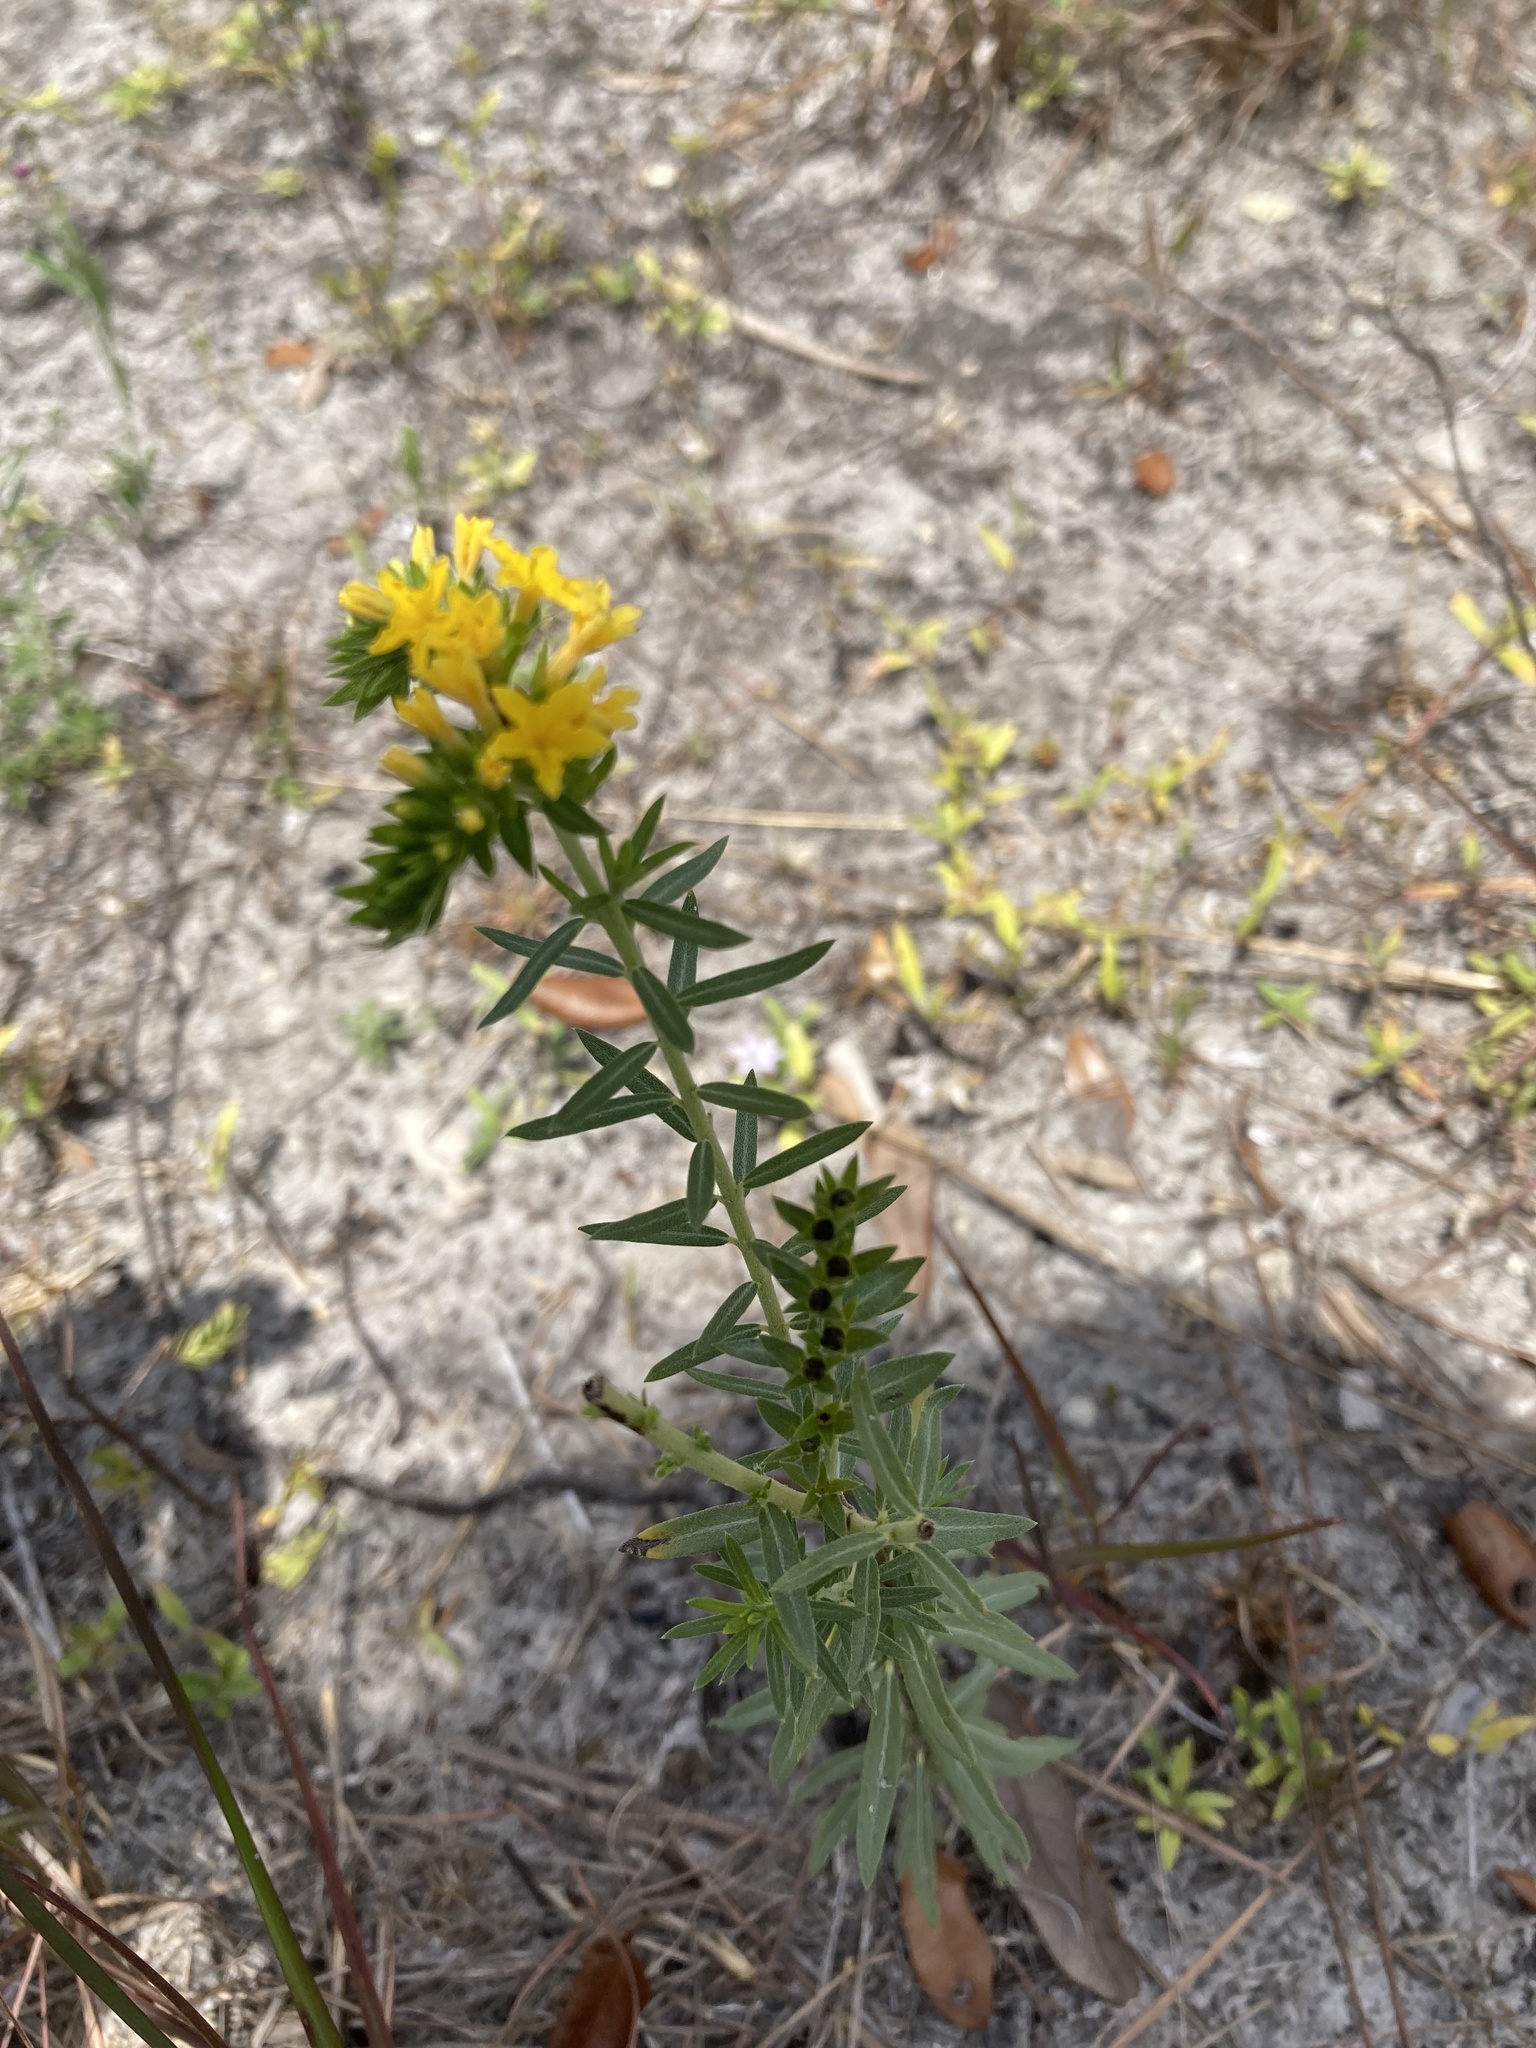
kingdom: Plantae
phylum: Tracheophyta
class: Magnoliopsida
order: Boraginales
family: Heliotropiaceae
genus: Euploca
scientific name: Euploca polyphylla
